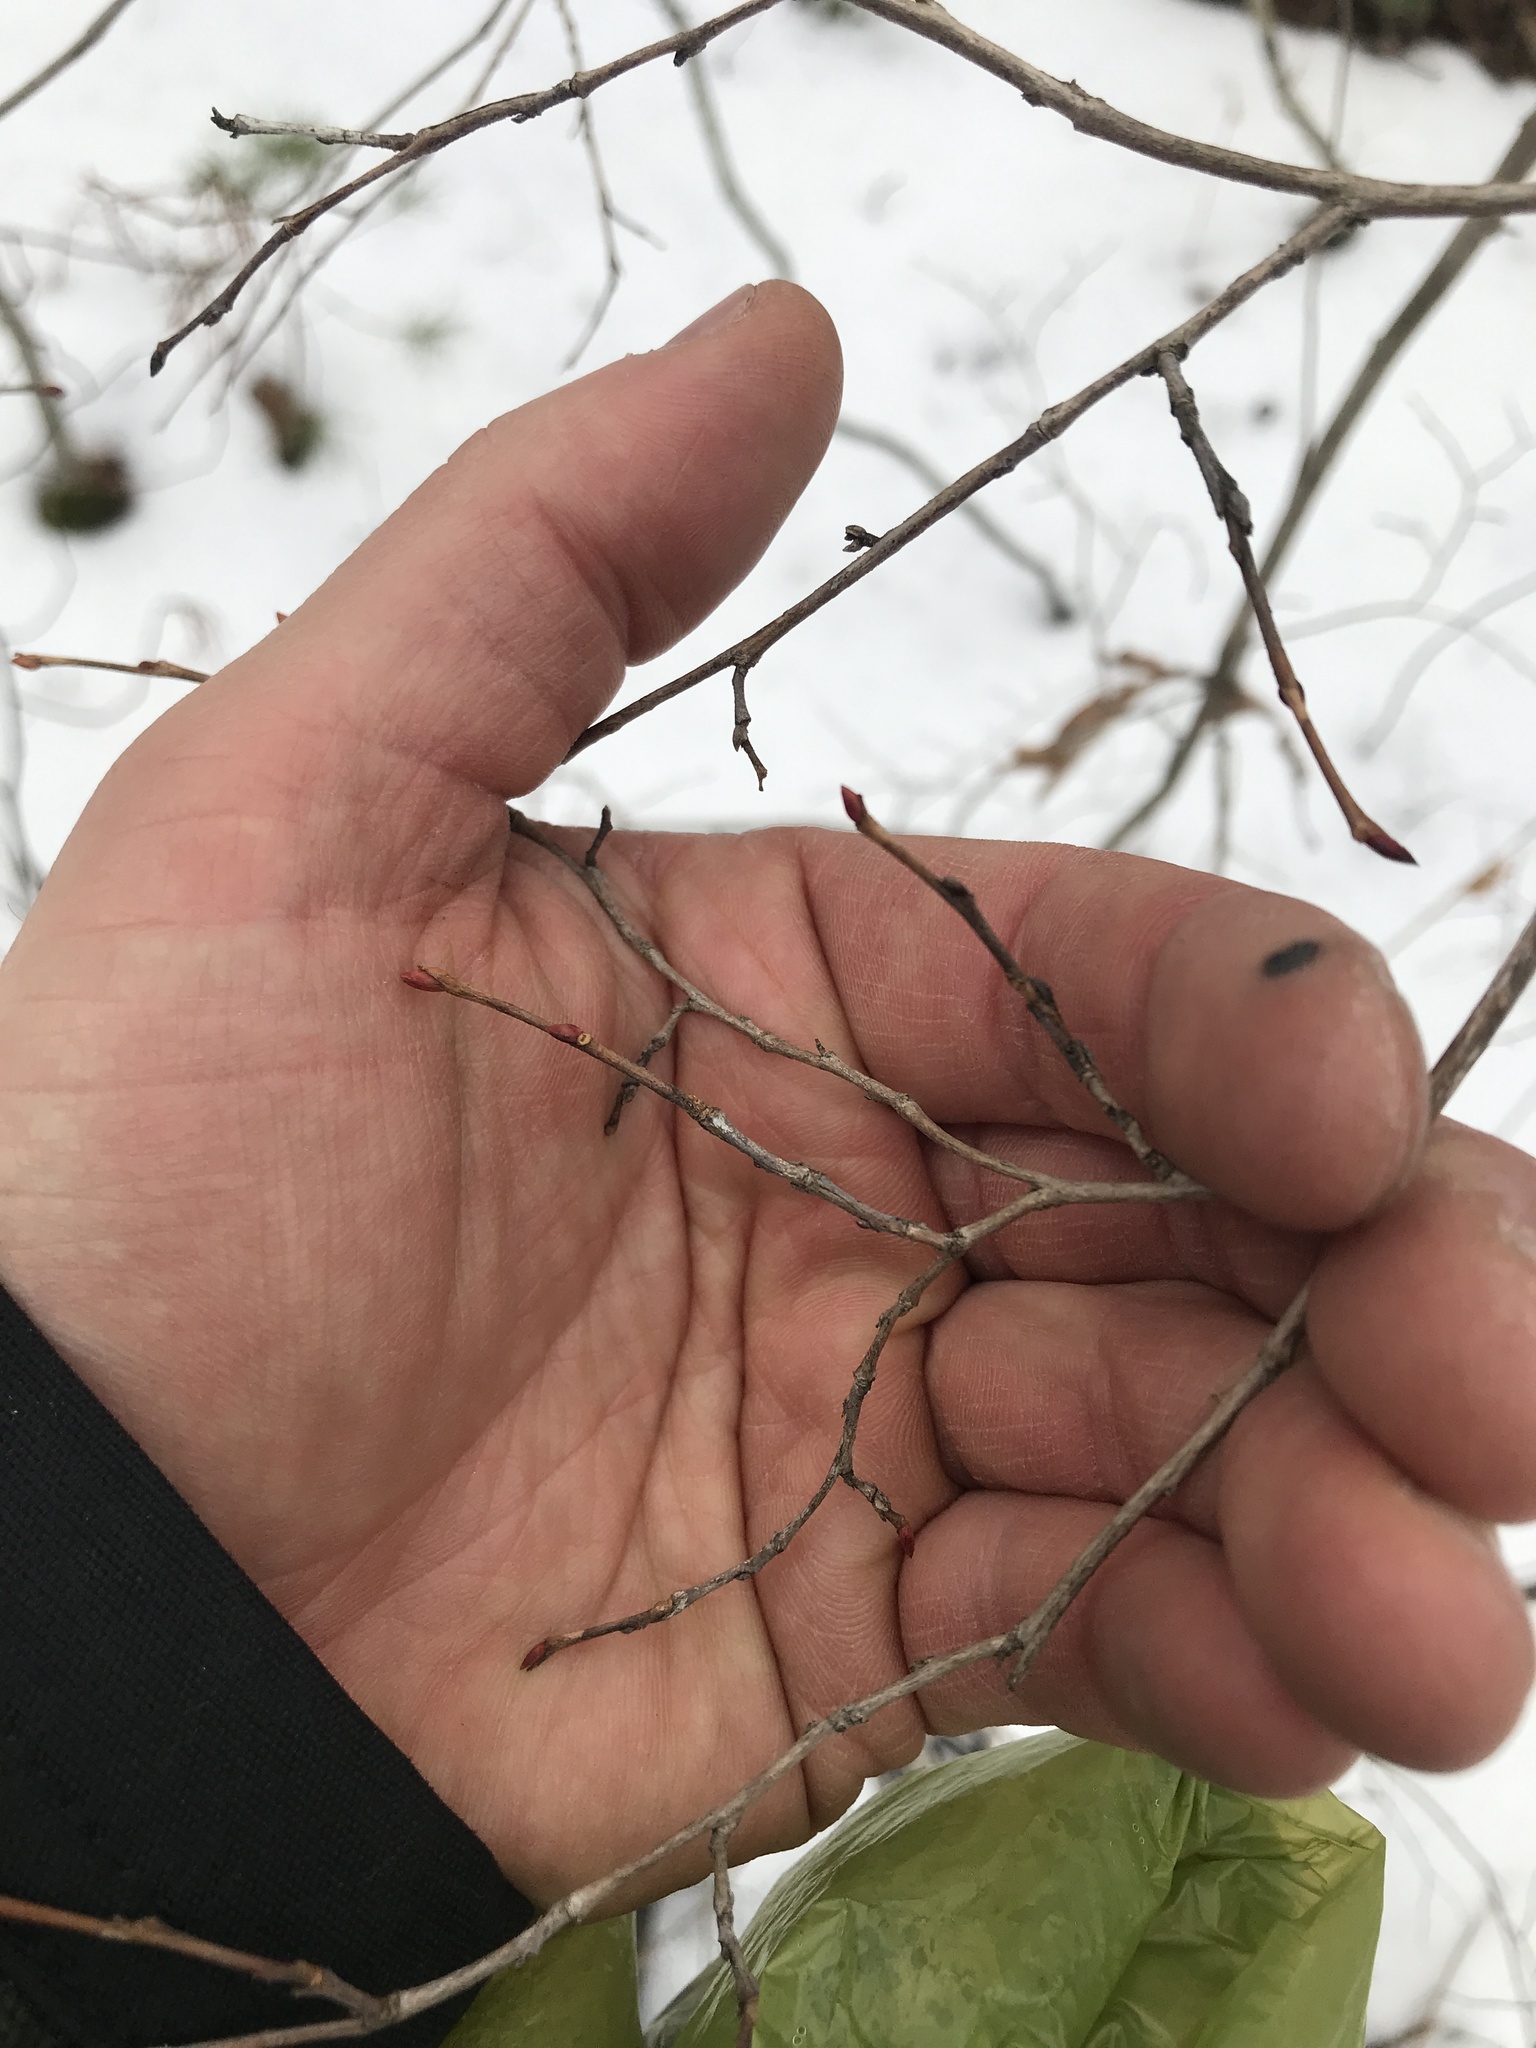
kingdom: Plantae
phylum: Tracheophyta
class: Magnoliopsida
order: Ericales
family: Ericaceae
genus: Lyonia
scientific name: Lyonia ligustrina
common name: Maleberry
